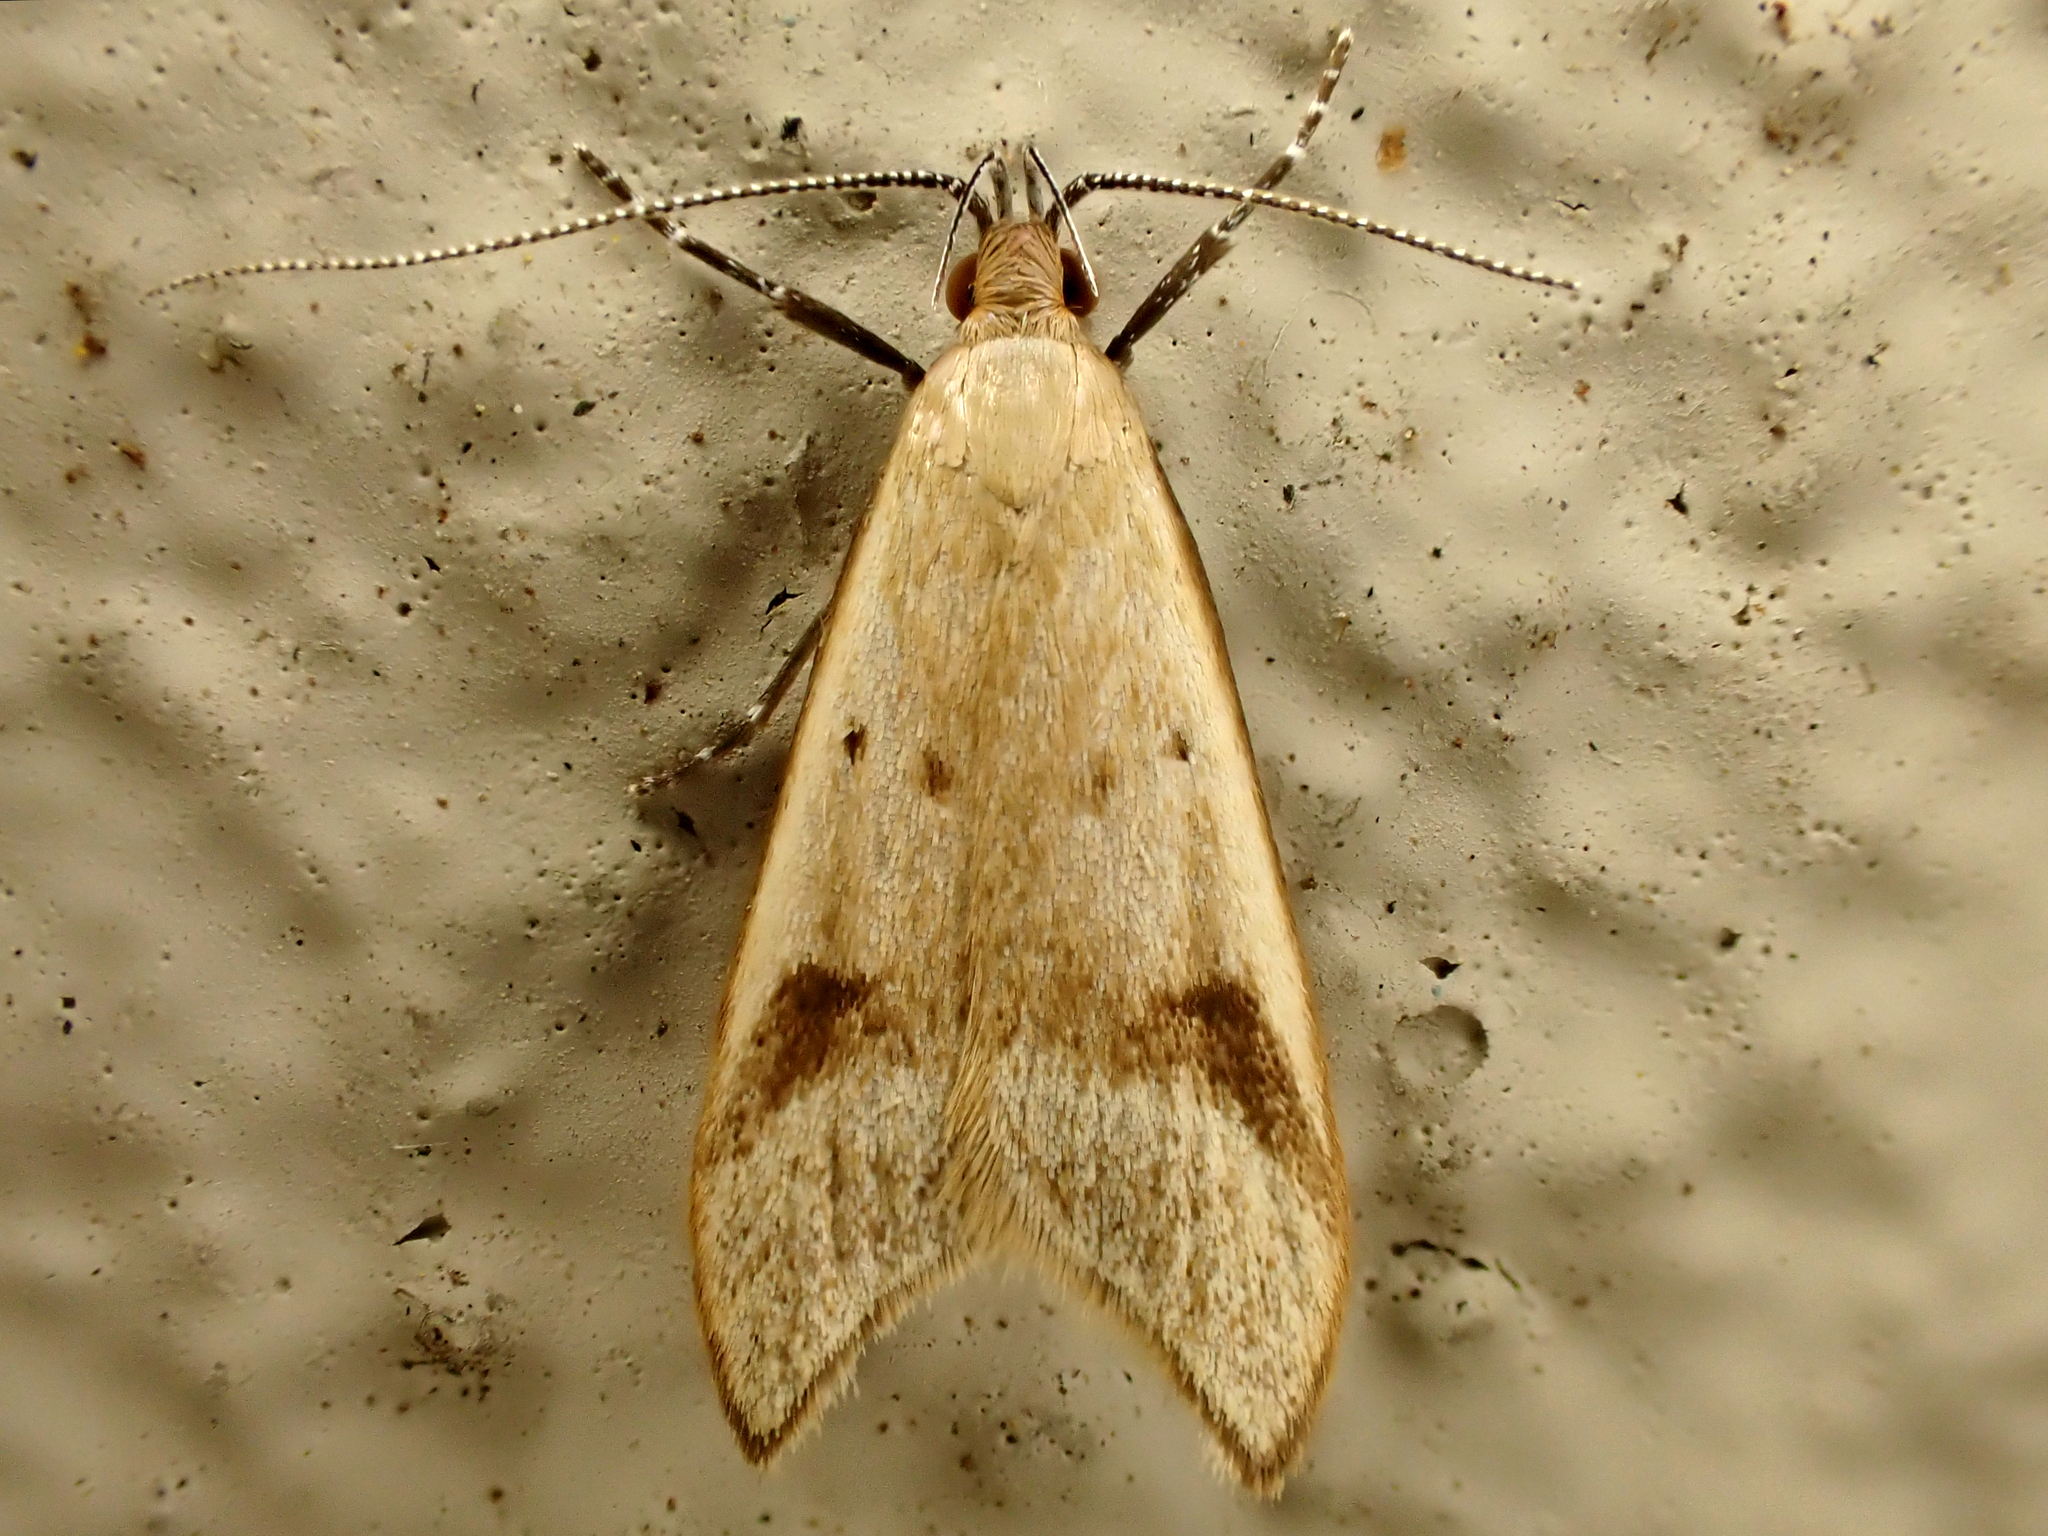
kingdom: Animalia
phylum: Arthropoda
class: Insecta
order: Lepidoptera
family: Oecophoridae
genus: Gymnobathra
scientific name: Gymnobathra hyetodes
